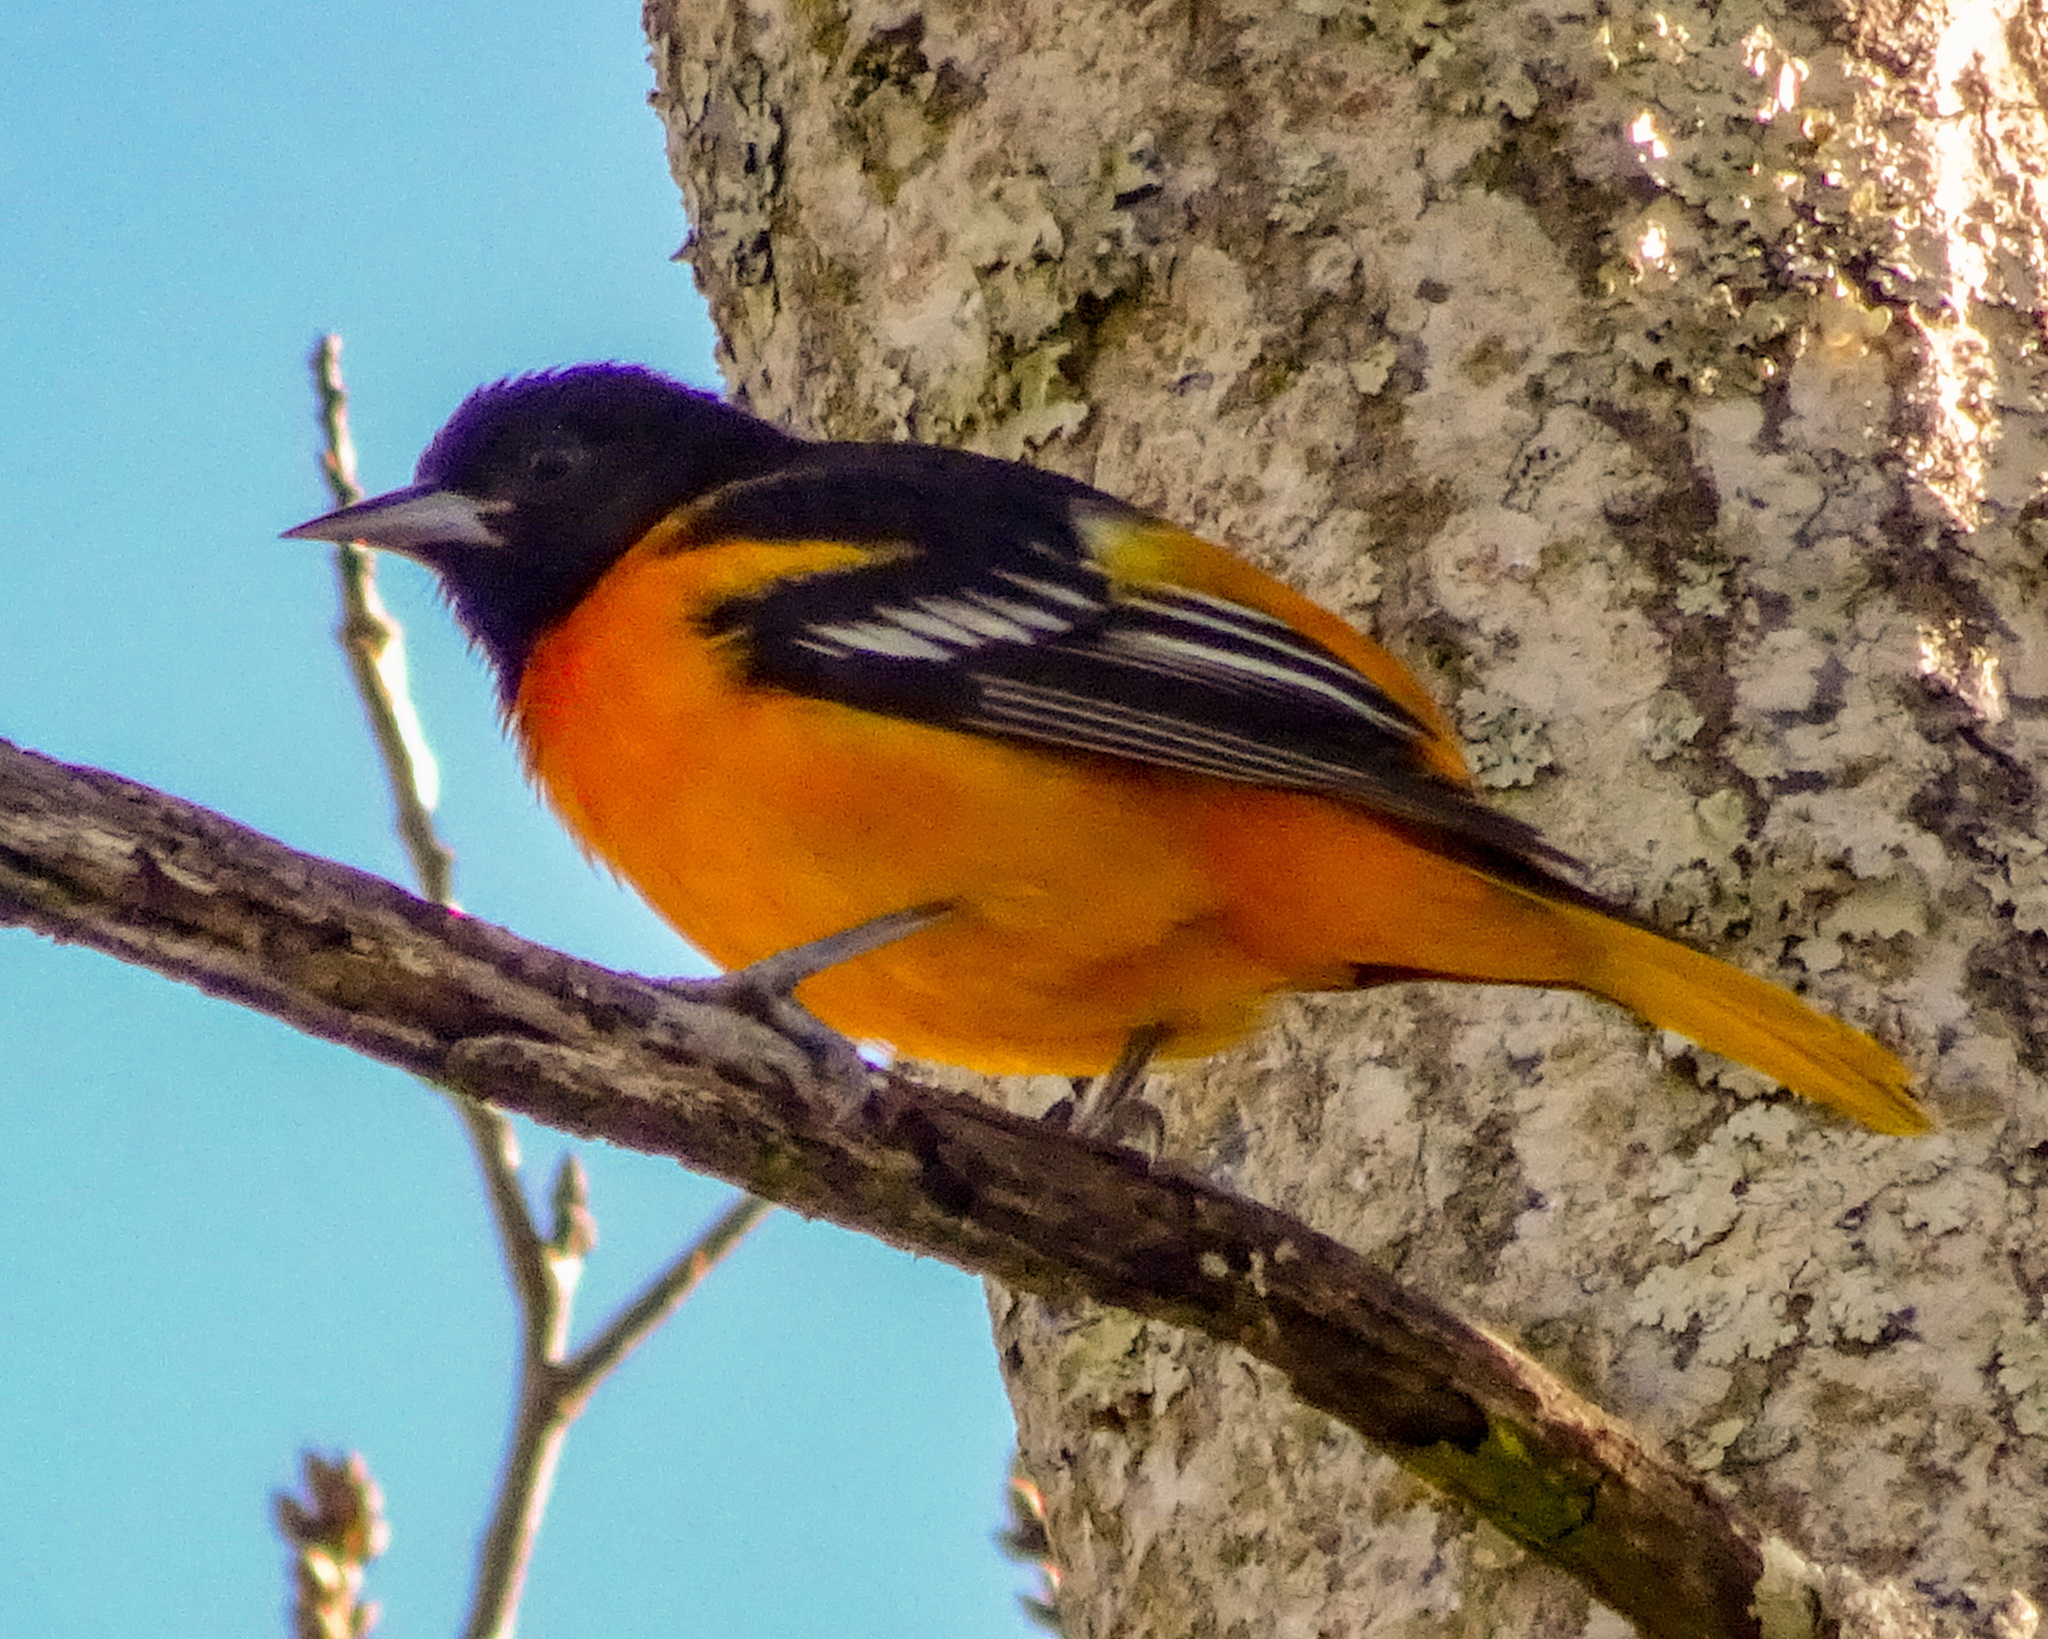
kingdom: Animalia
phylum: Chordata
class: Aves
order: Passeriformes
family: Icteridae
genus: Icterus
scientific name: Icterus galbula
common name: Baltimore oriole
